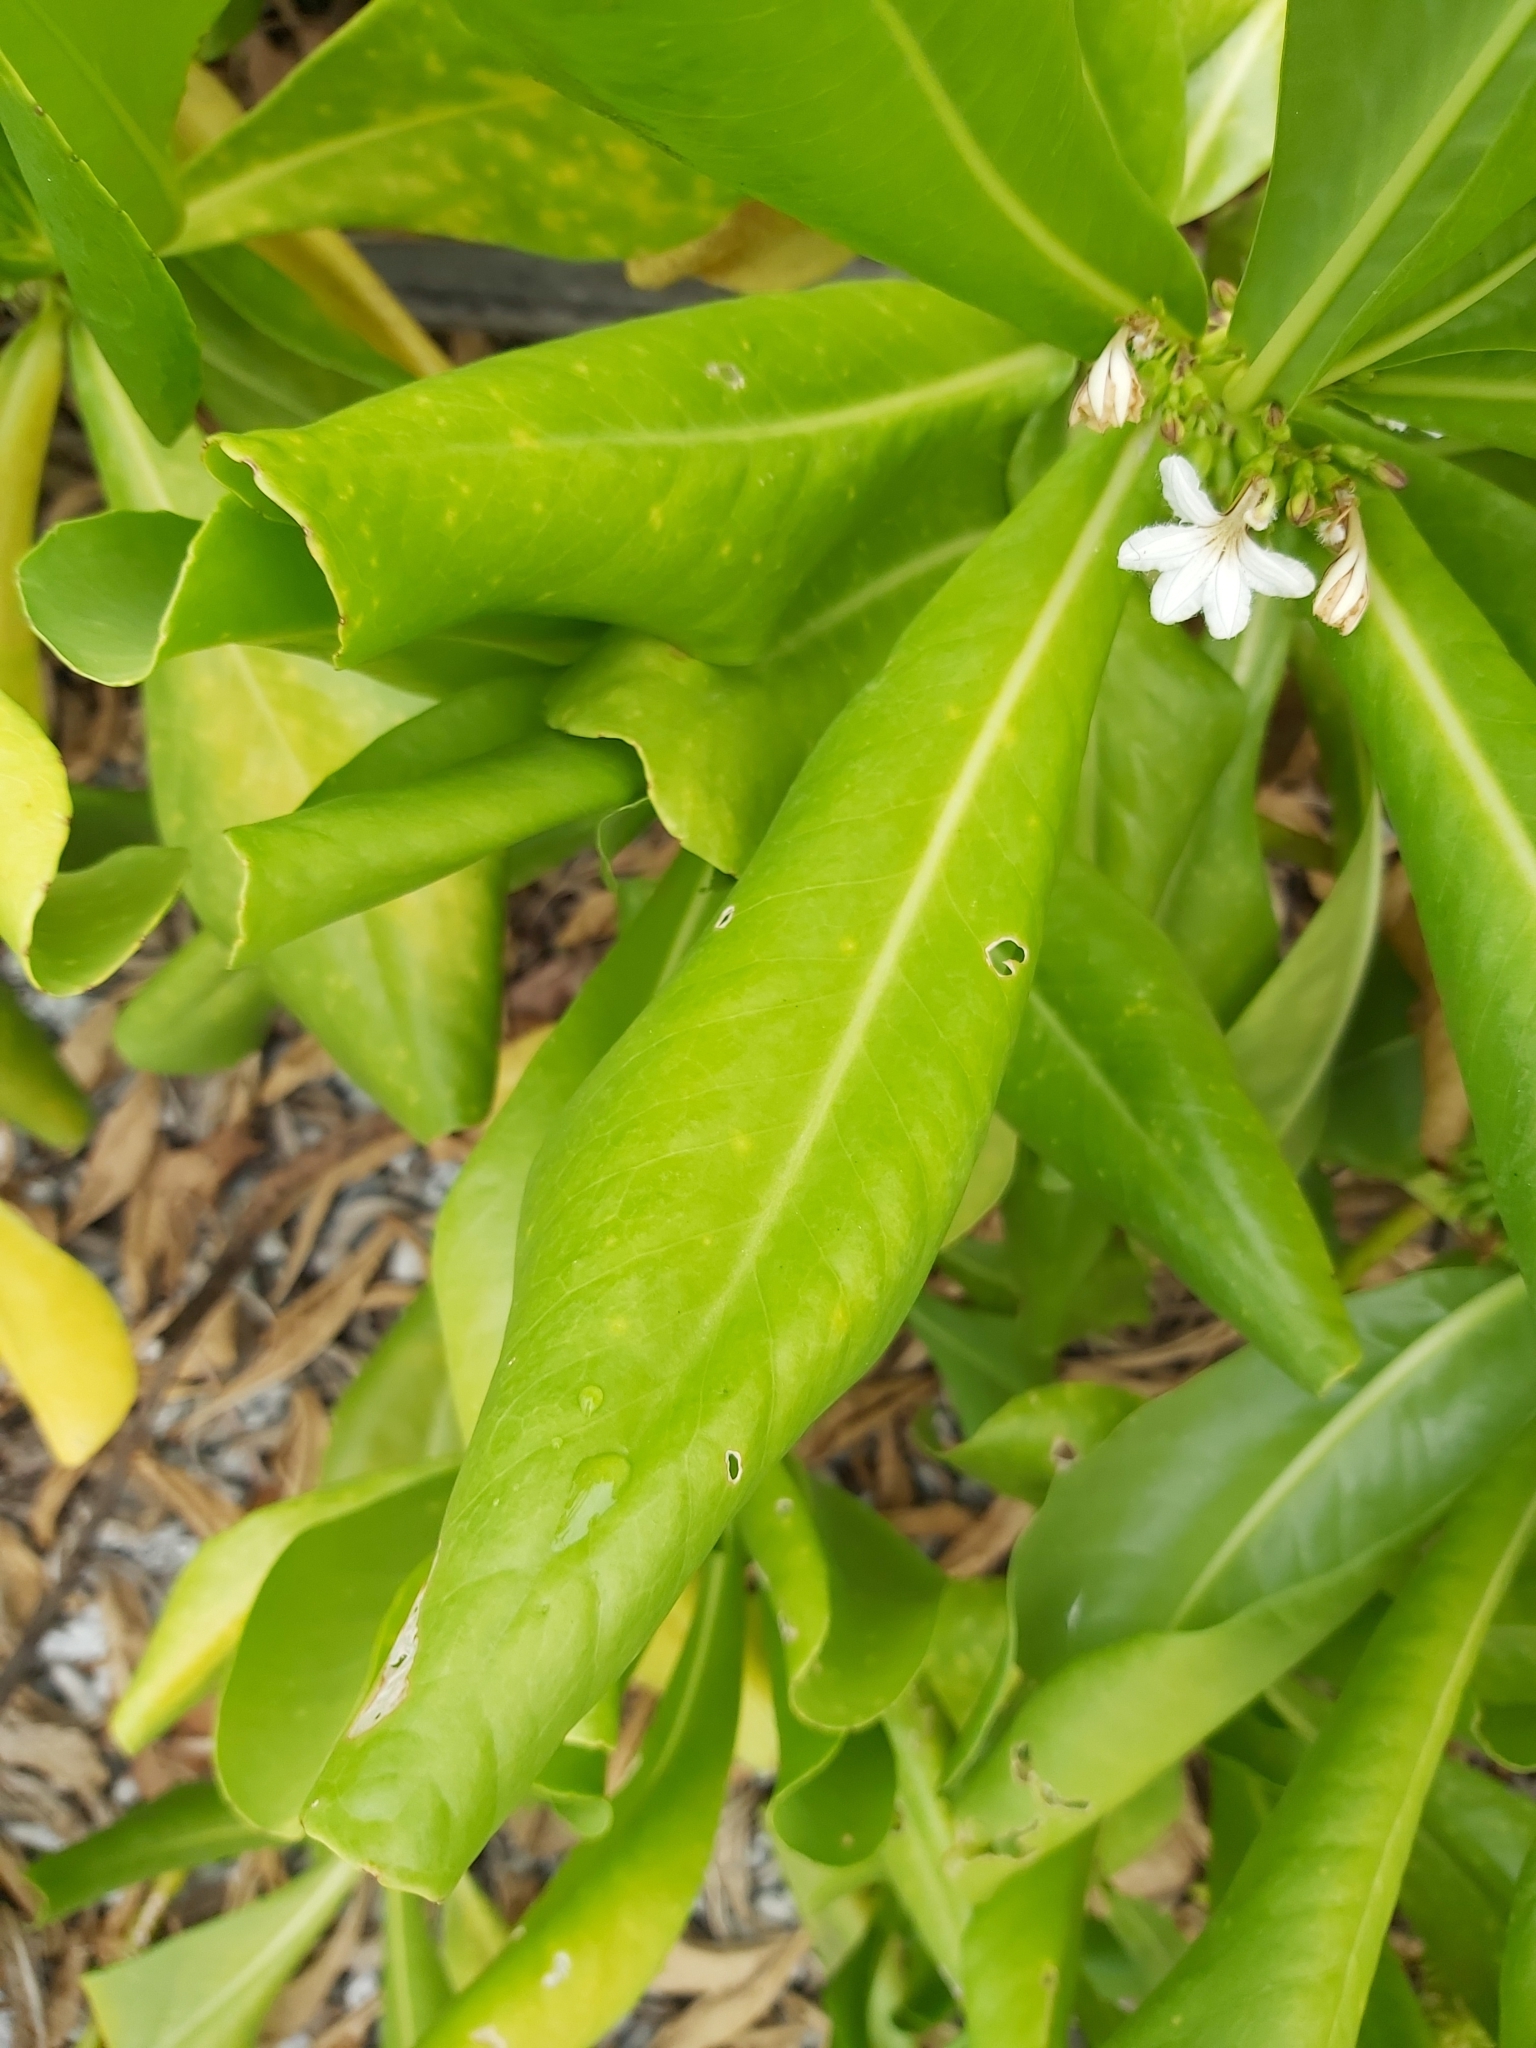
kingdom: Plantae
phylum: Tracheophyta
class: Magnoliopsida
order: Asterales
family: Goodeniaceae
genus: Scaevola
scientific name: Scaevola taccada
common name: Sea lettucetree
